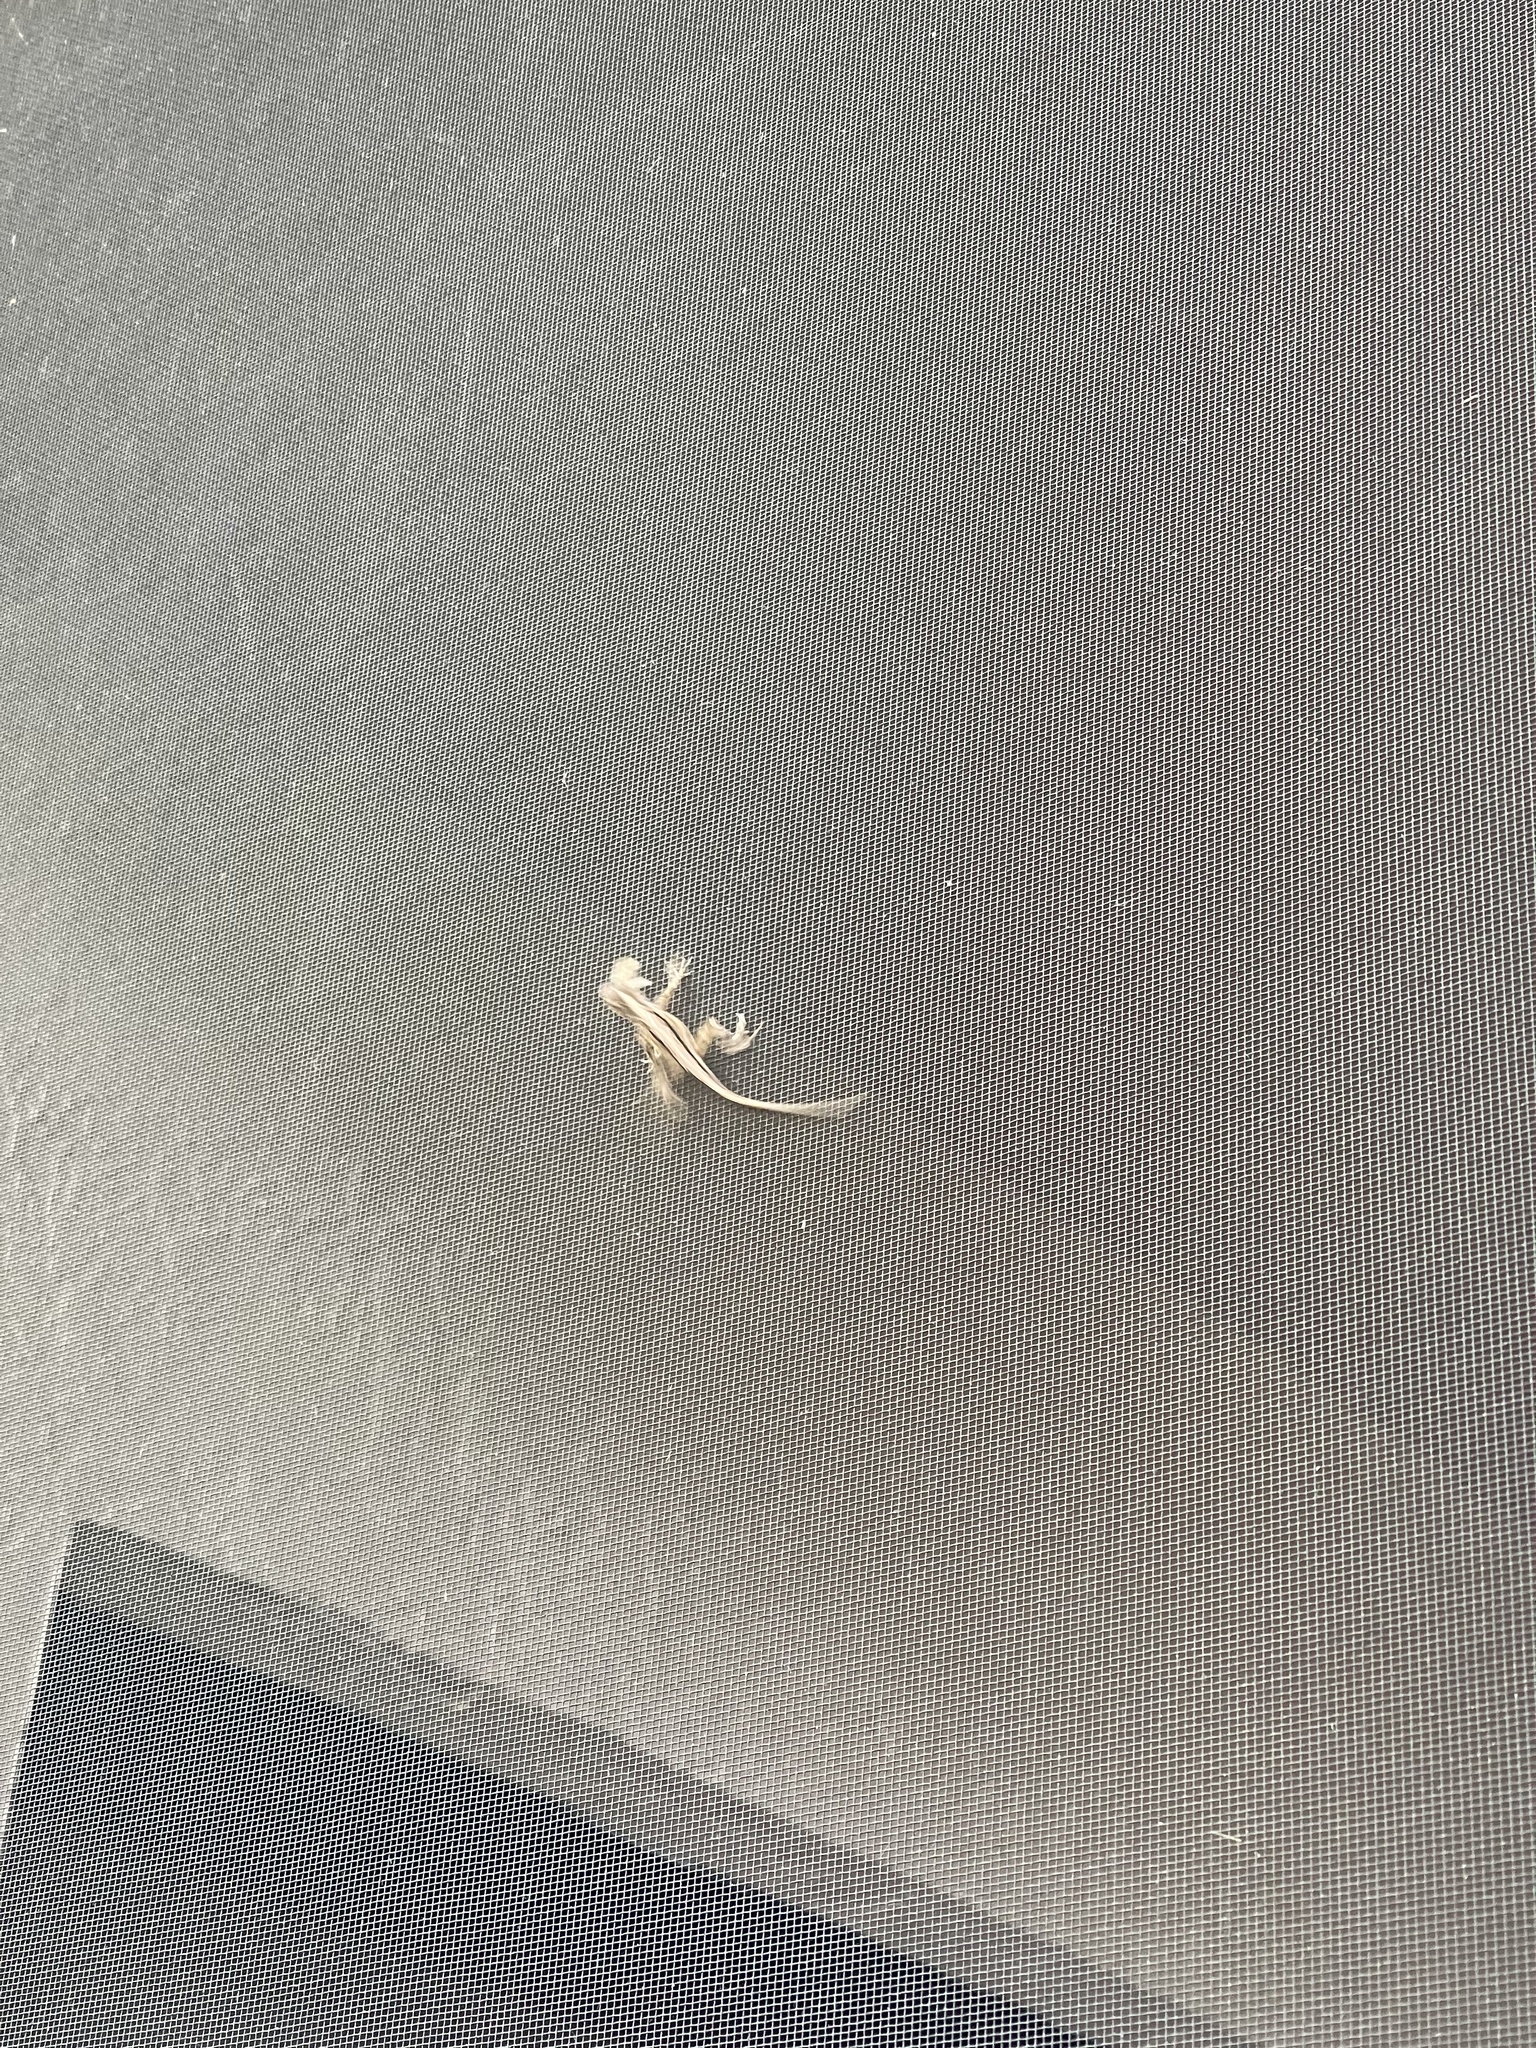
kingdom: Animalia
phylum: Chordata
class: Squamata
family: Dactyloidae
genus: Anolis
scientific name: Anolis sagrei
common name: Brown anole
